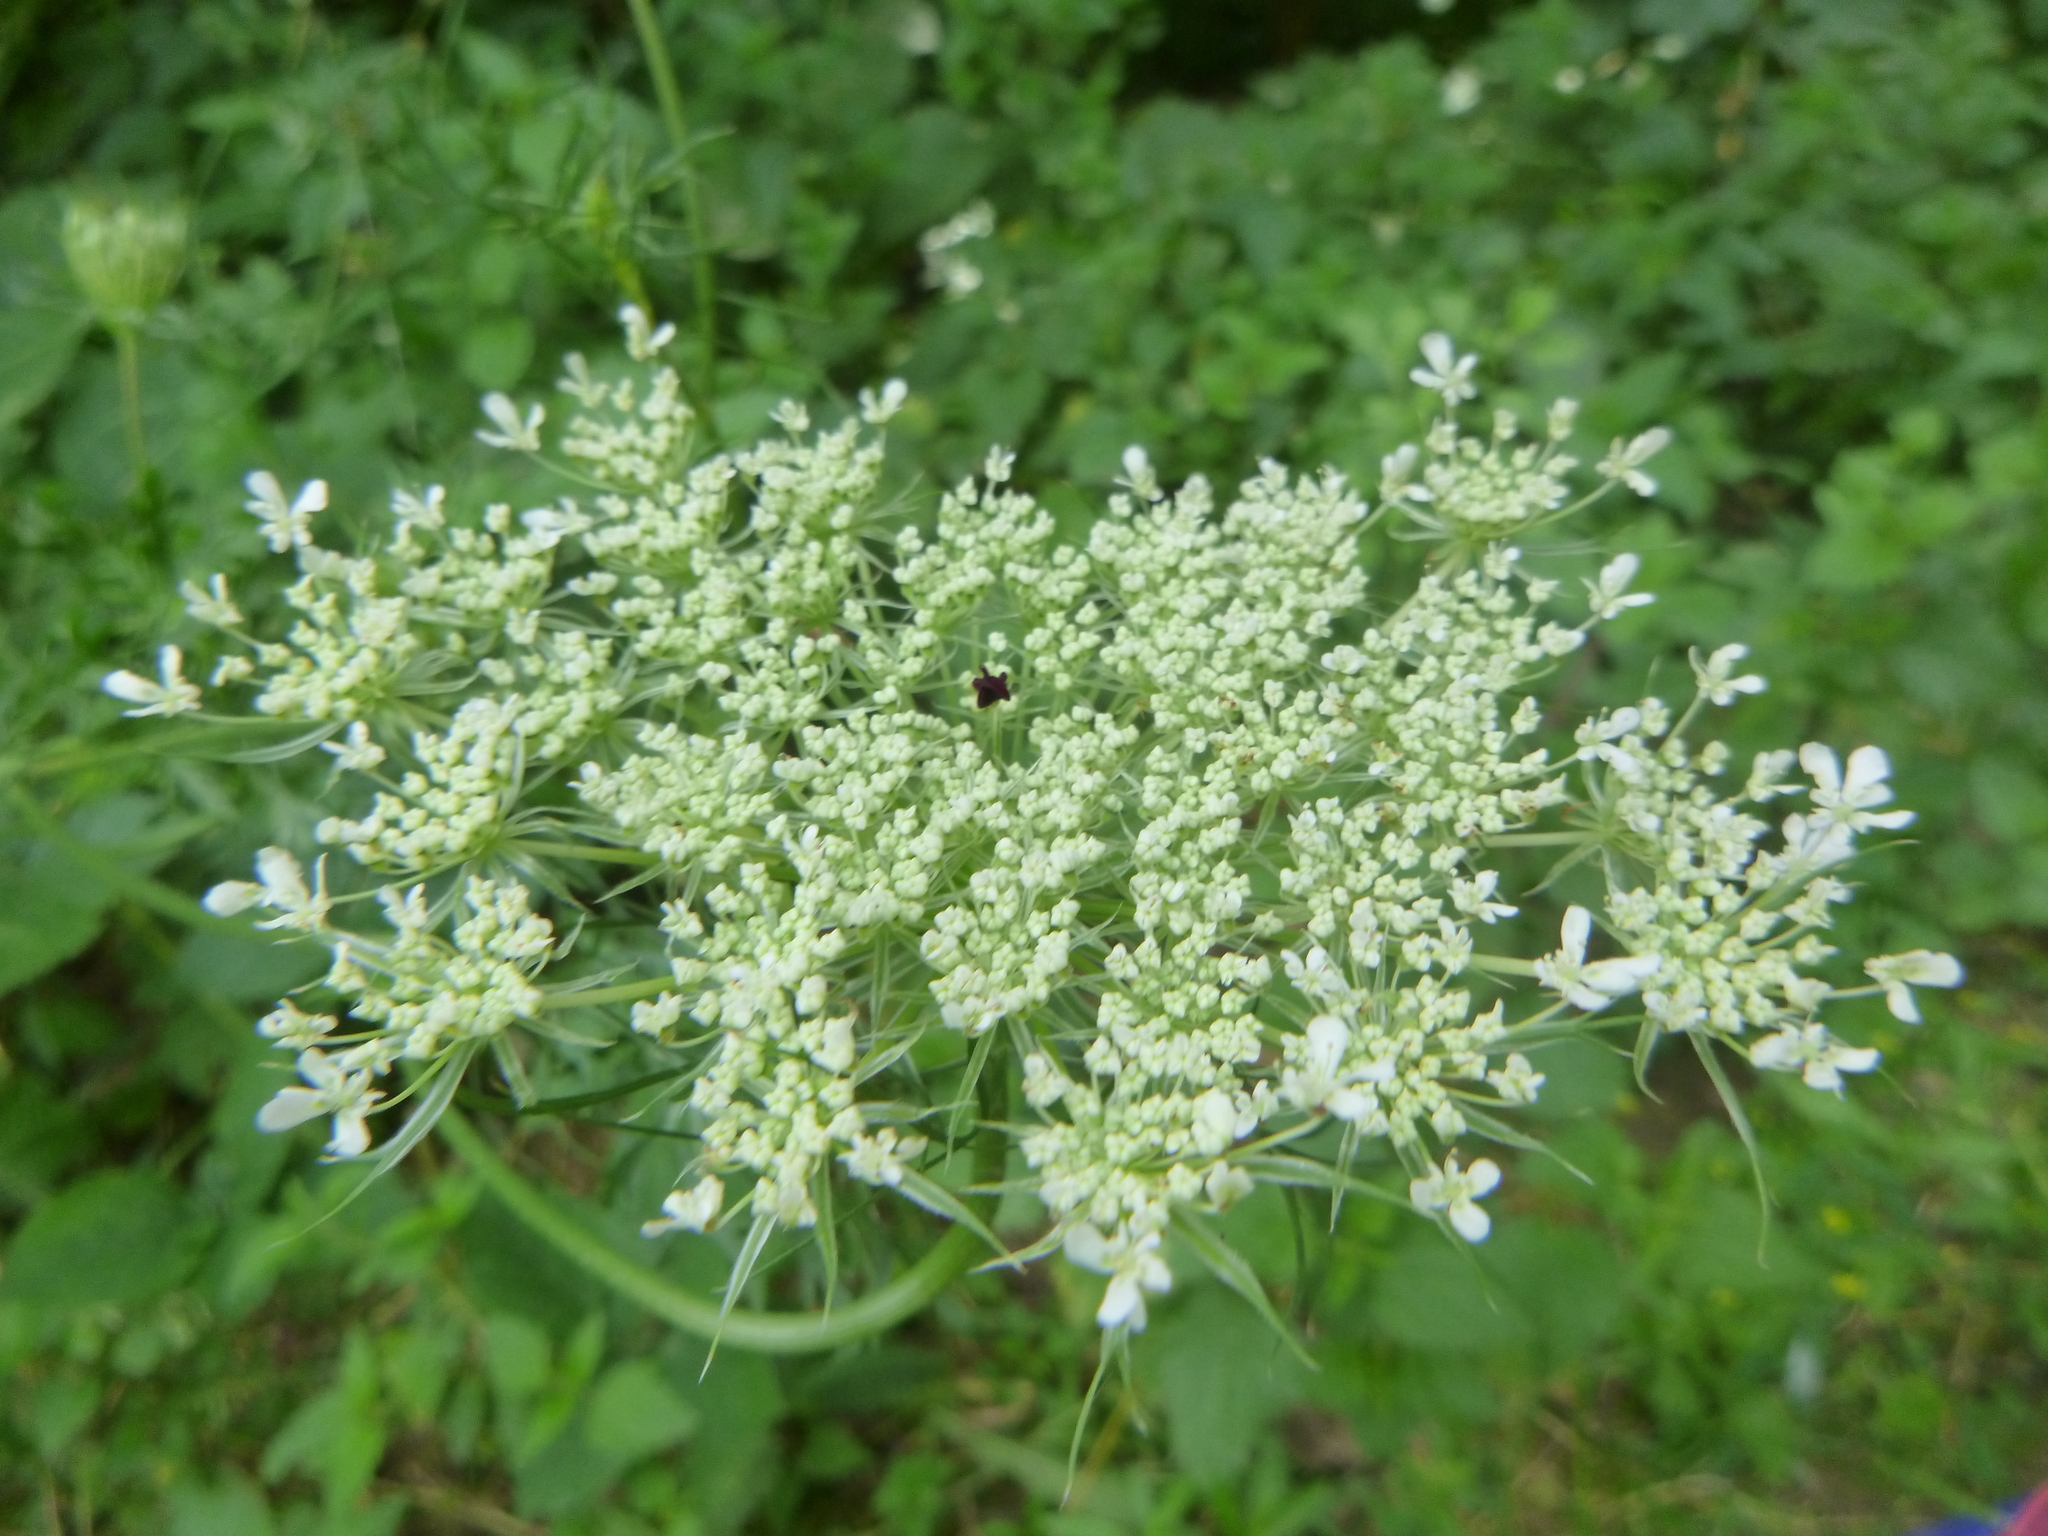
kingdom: Plantae
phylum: Tracheophyta
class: Magnoliopsida
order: Apiales
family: Apiaceae
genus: Daucus
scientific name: Daucus carota
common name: Wild carrot
